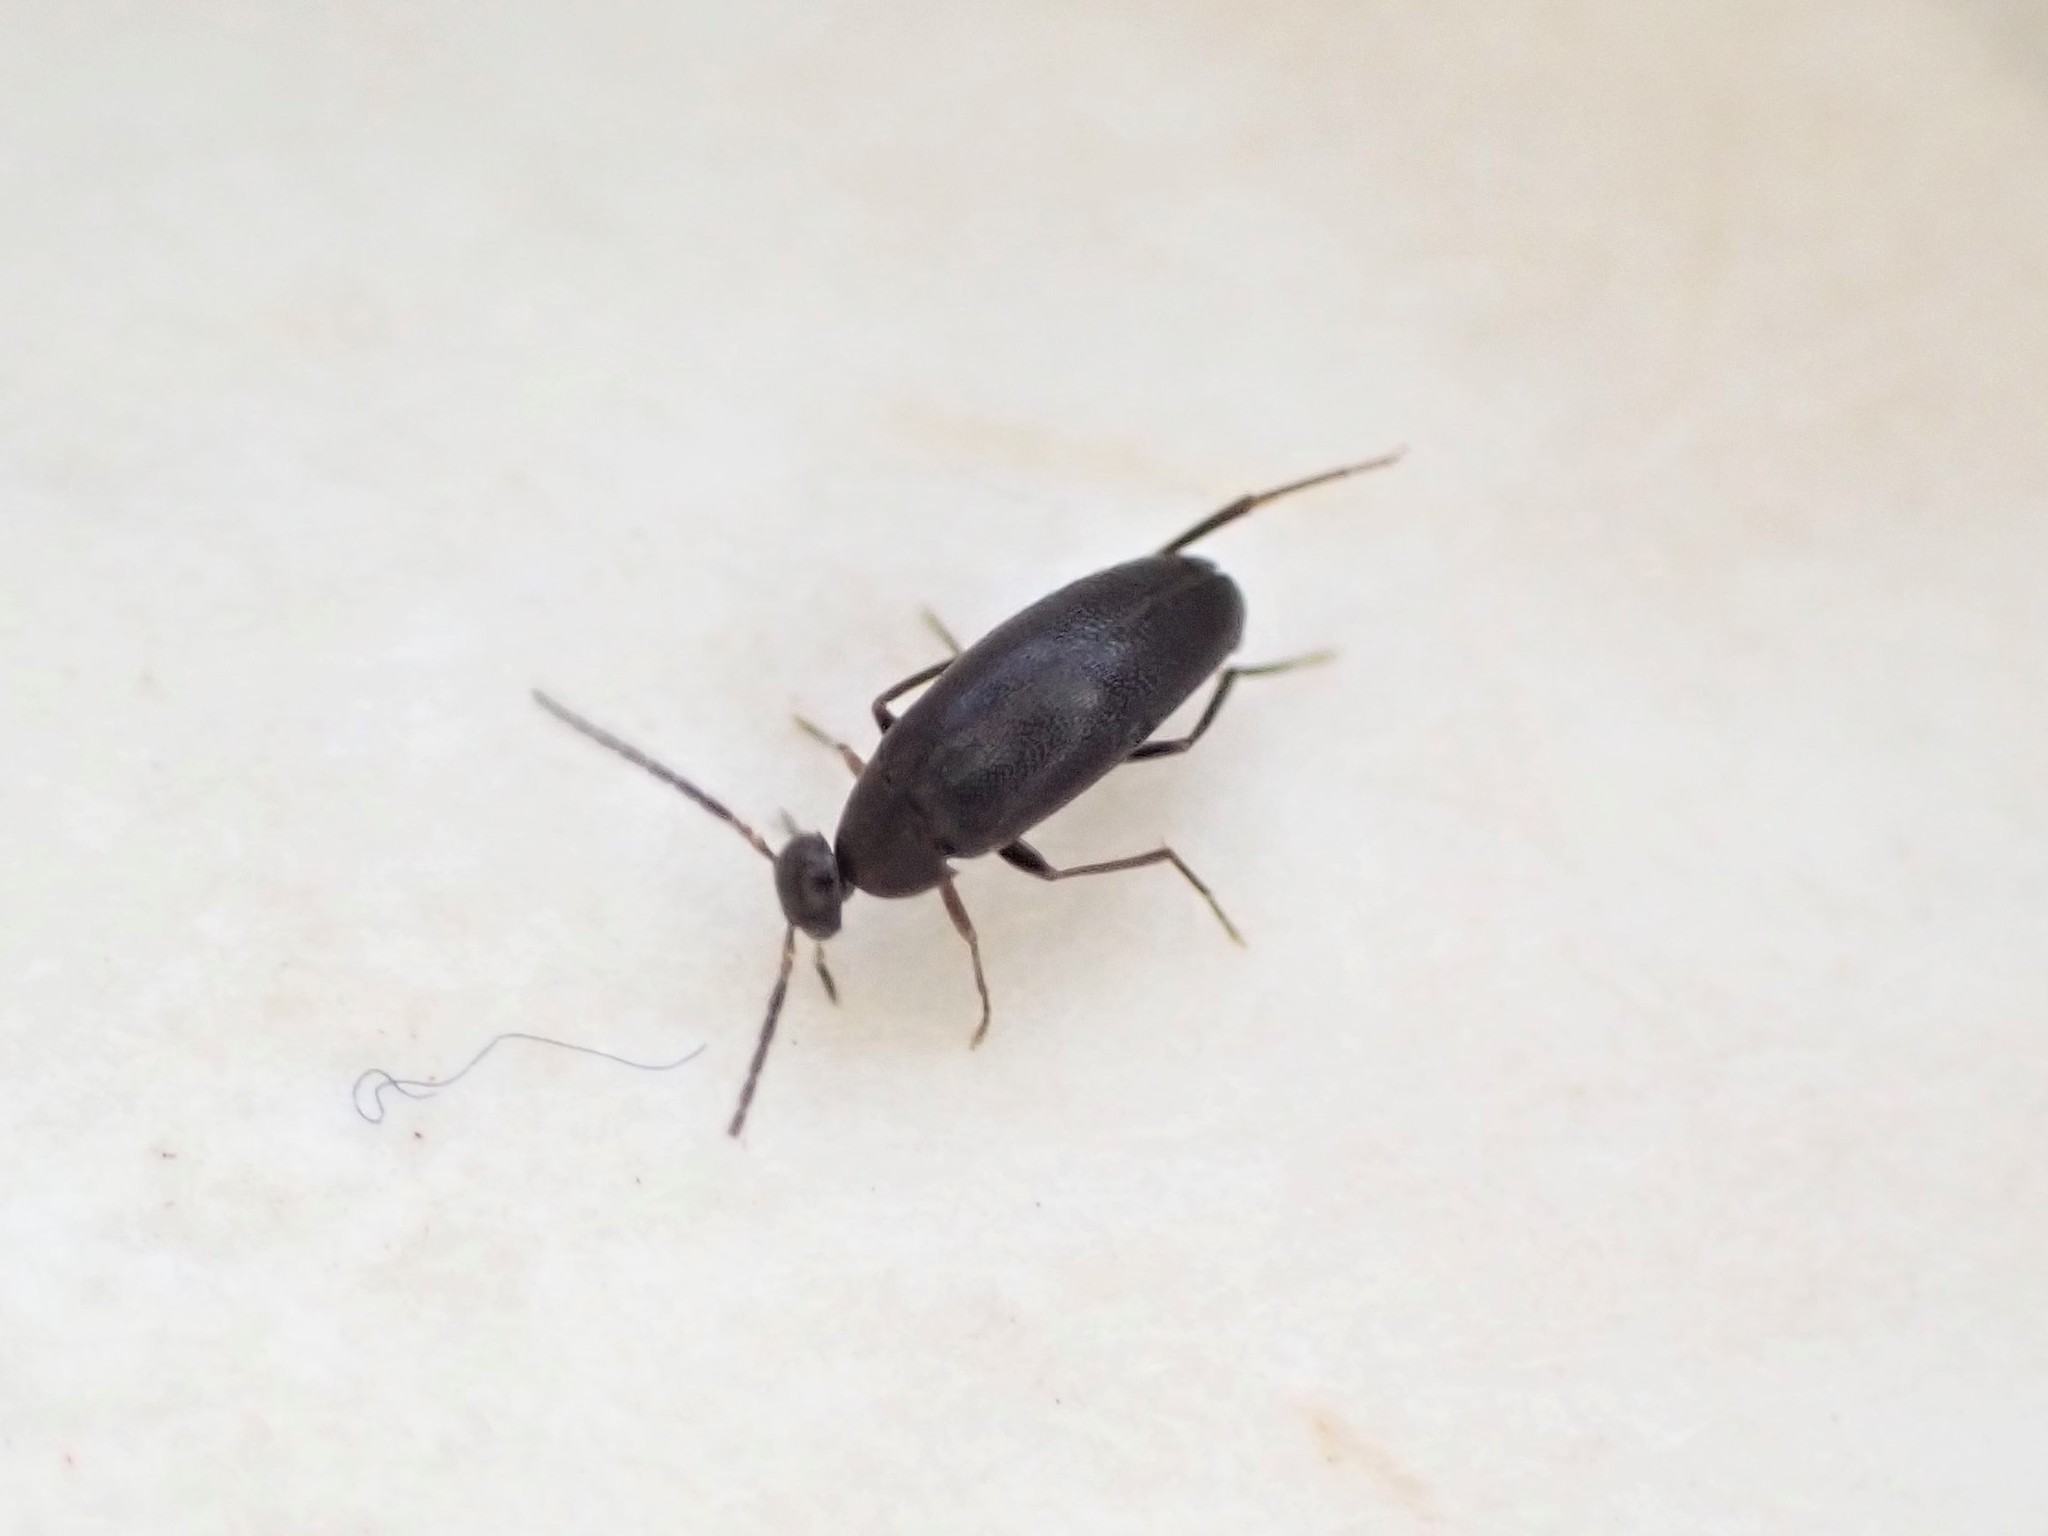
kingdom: Animalia
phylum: Arthropoda
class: Insecta
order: Coleoptera
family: Scraptiidae
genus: Nothotelus
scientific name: Nothotelus
